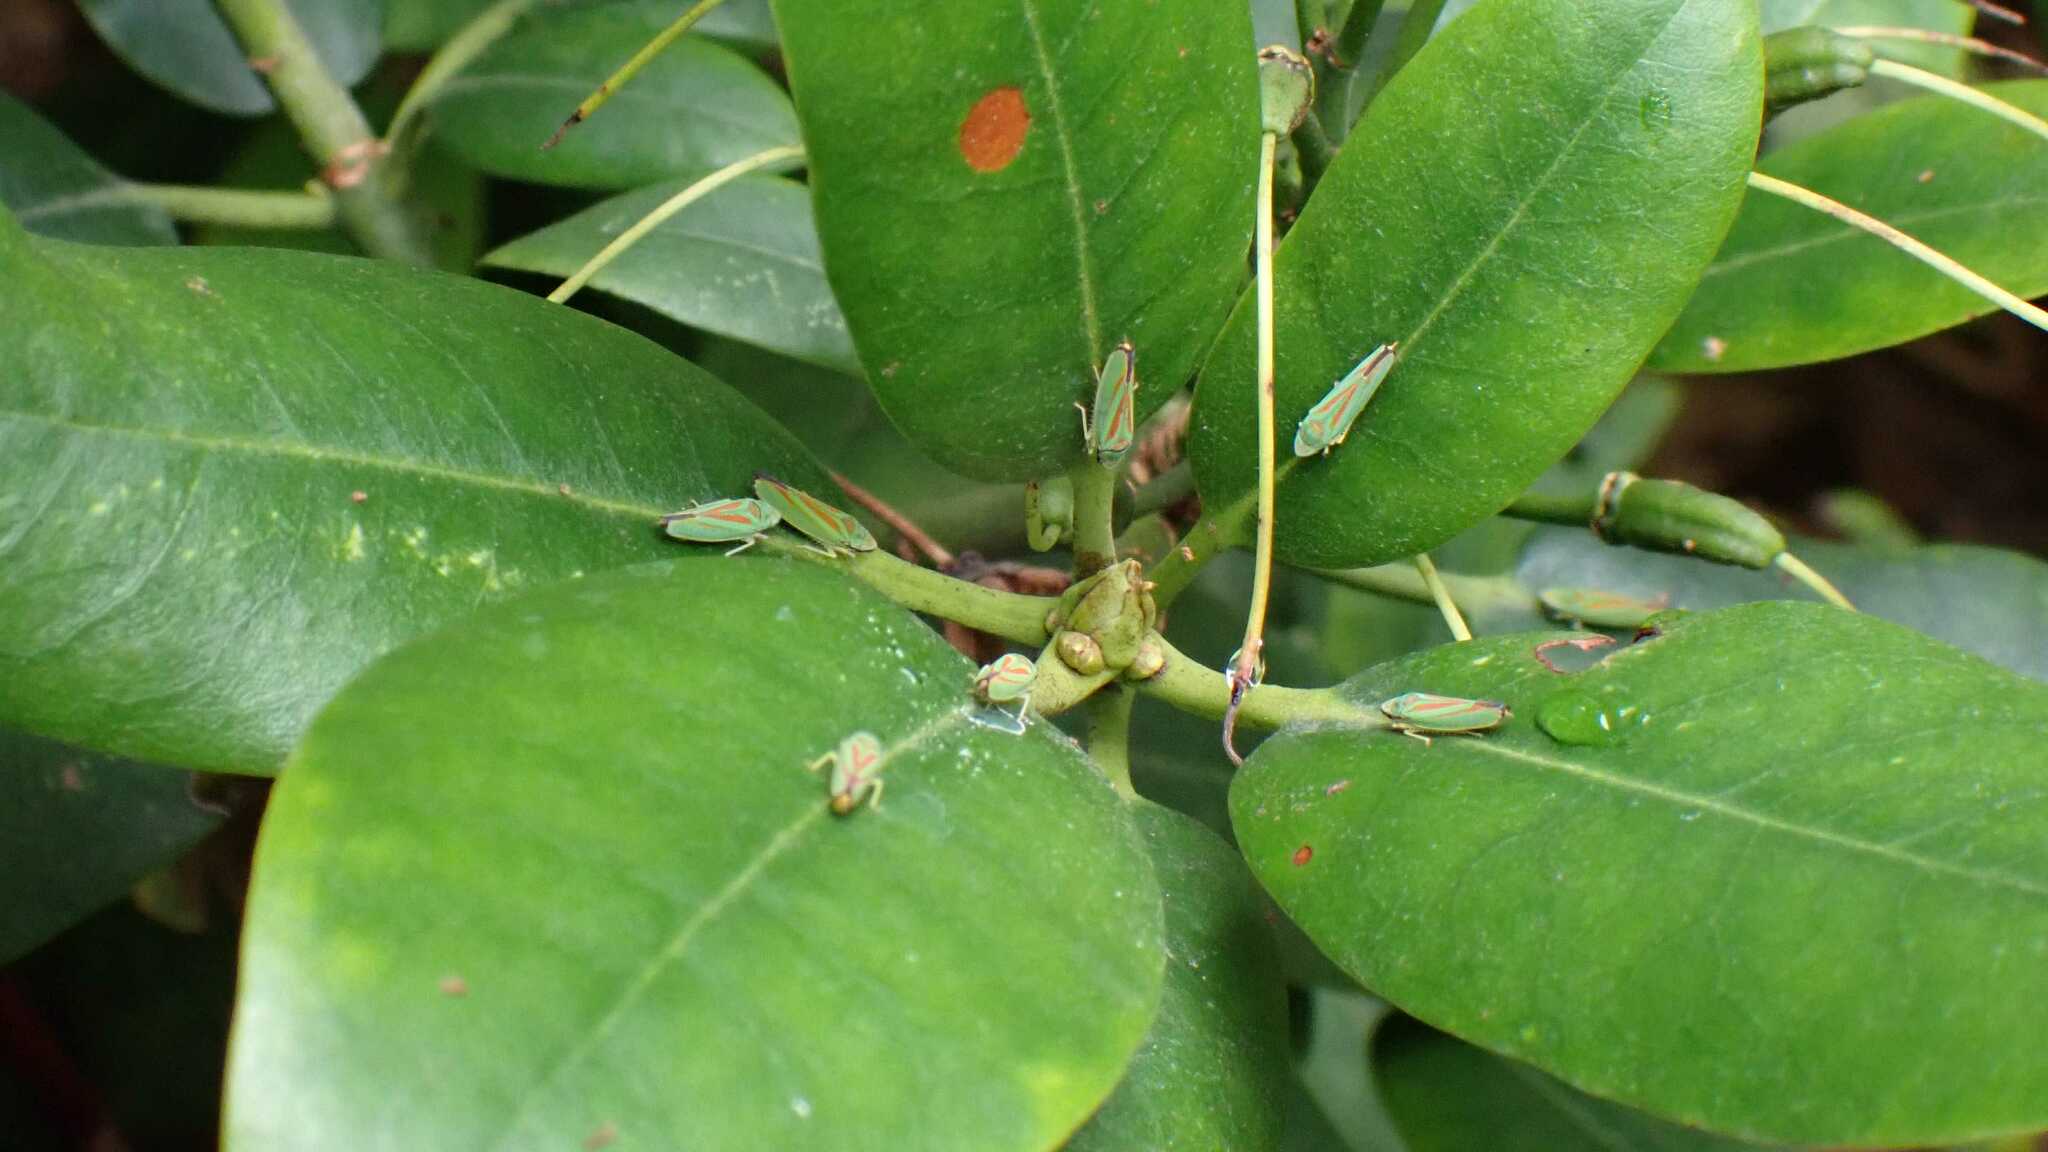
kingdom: Animalia
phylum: Arthropoda
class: Insecta
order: Hemiptera
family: Cicadellidae
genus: Graphocephala
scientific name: Graphocephala fennahi
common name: Rhododendron leafhopper
